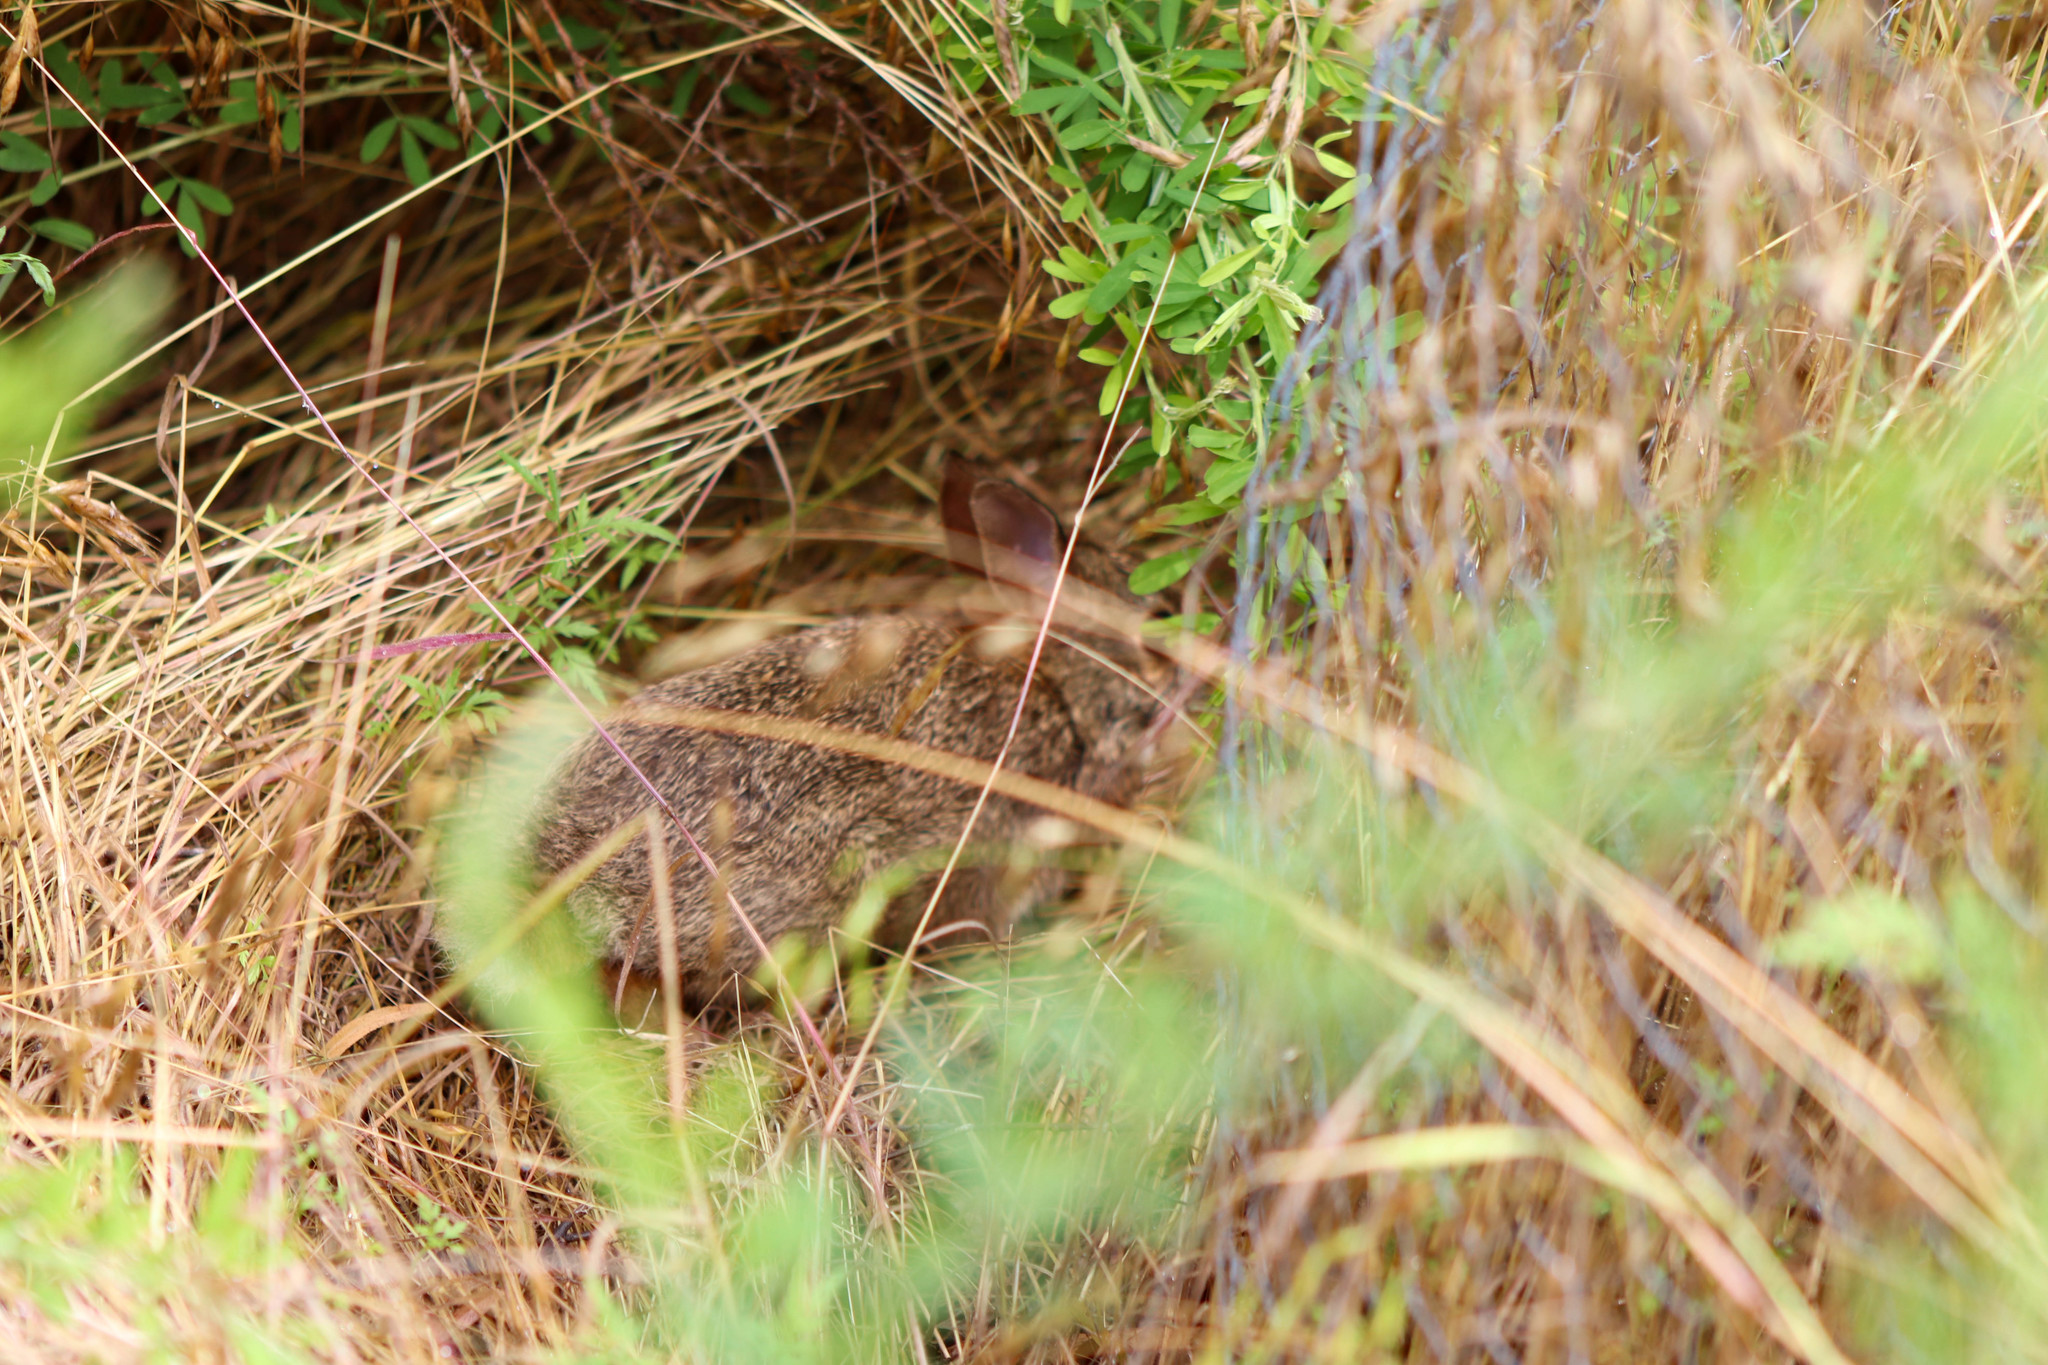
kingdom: Animalia
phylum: Chordata
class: Mammalia
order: Lagomorpha
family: Leporidae
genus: Sylvilagus
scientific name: Sylvilagus floridanus
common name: Eastern cottontail
